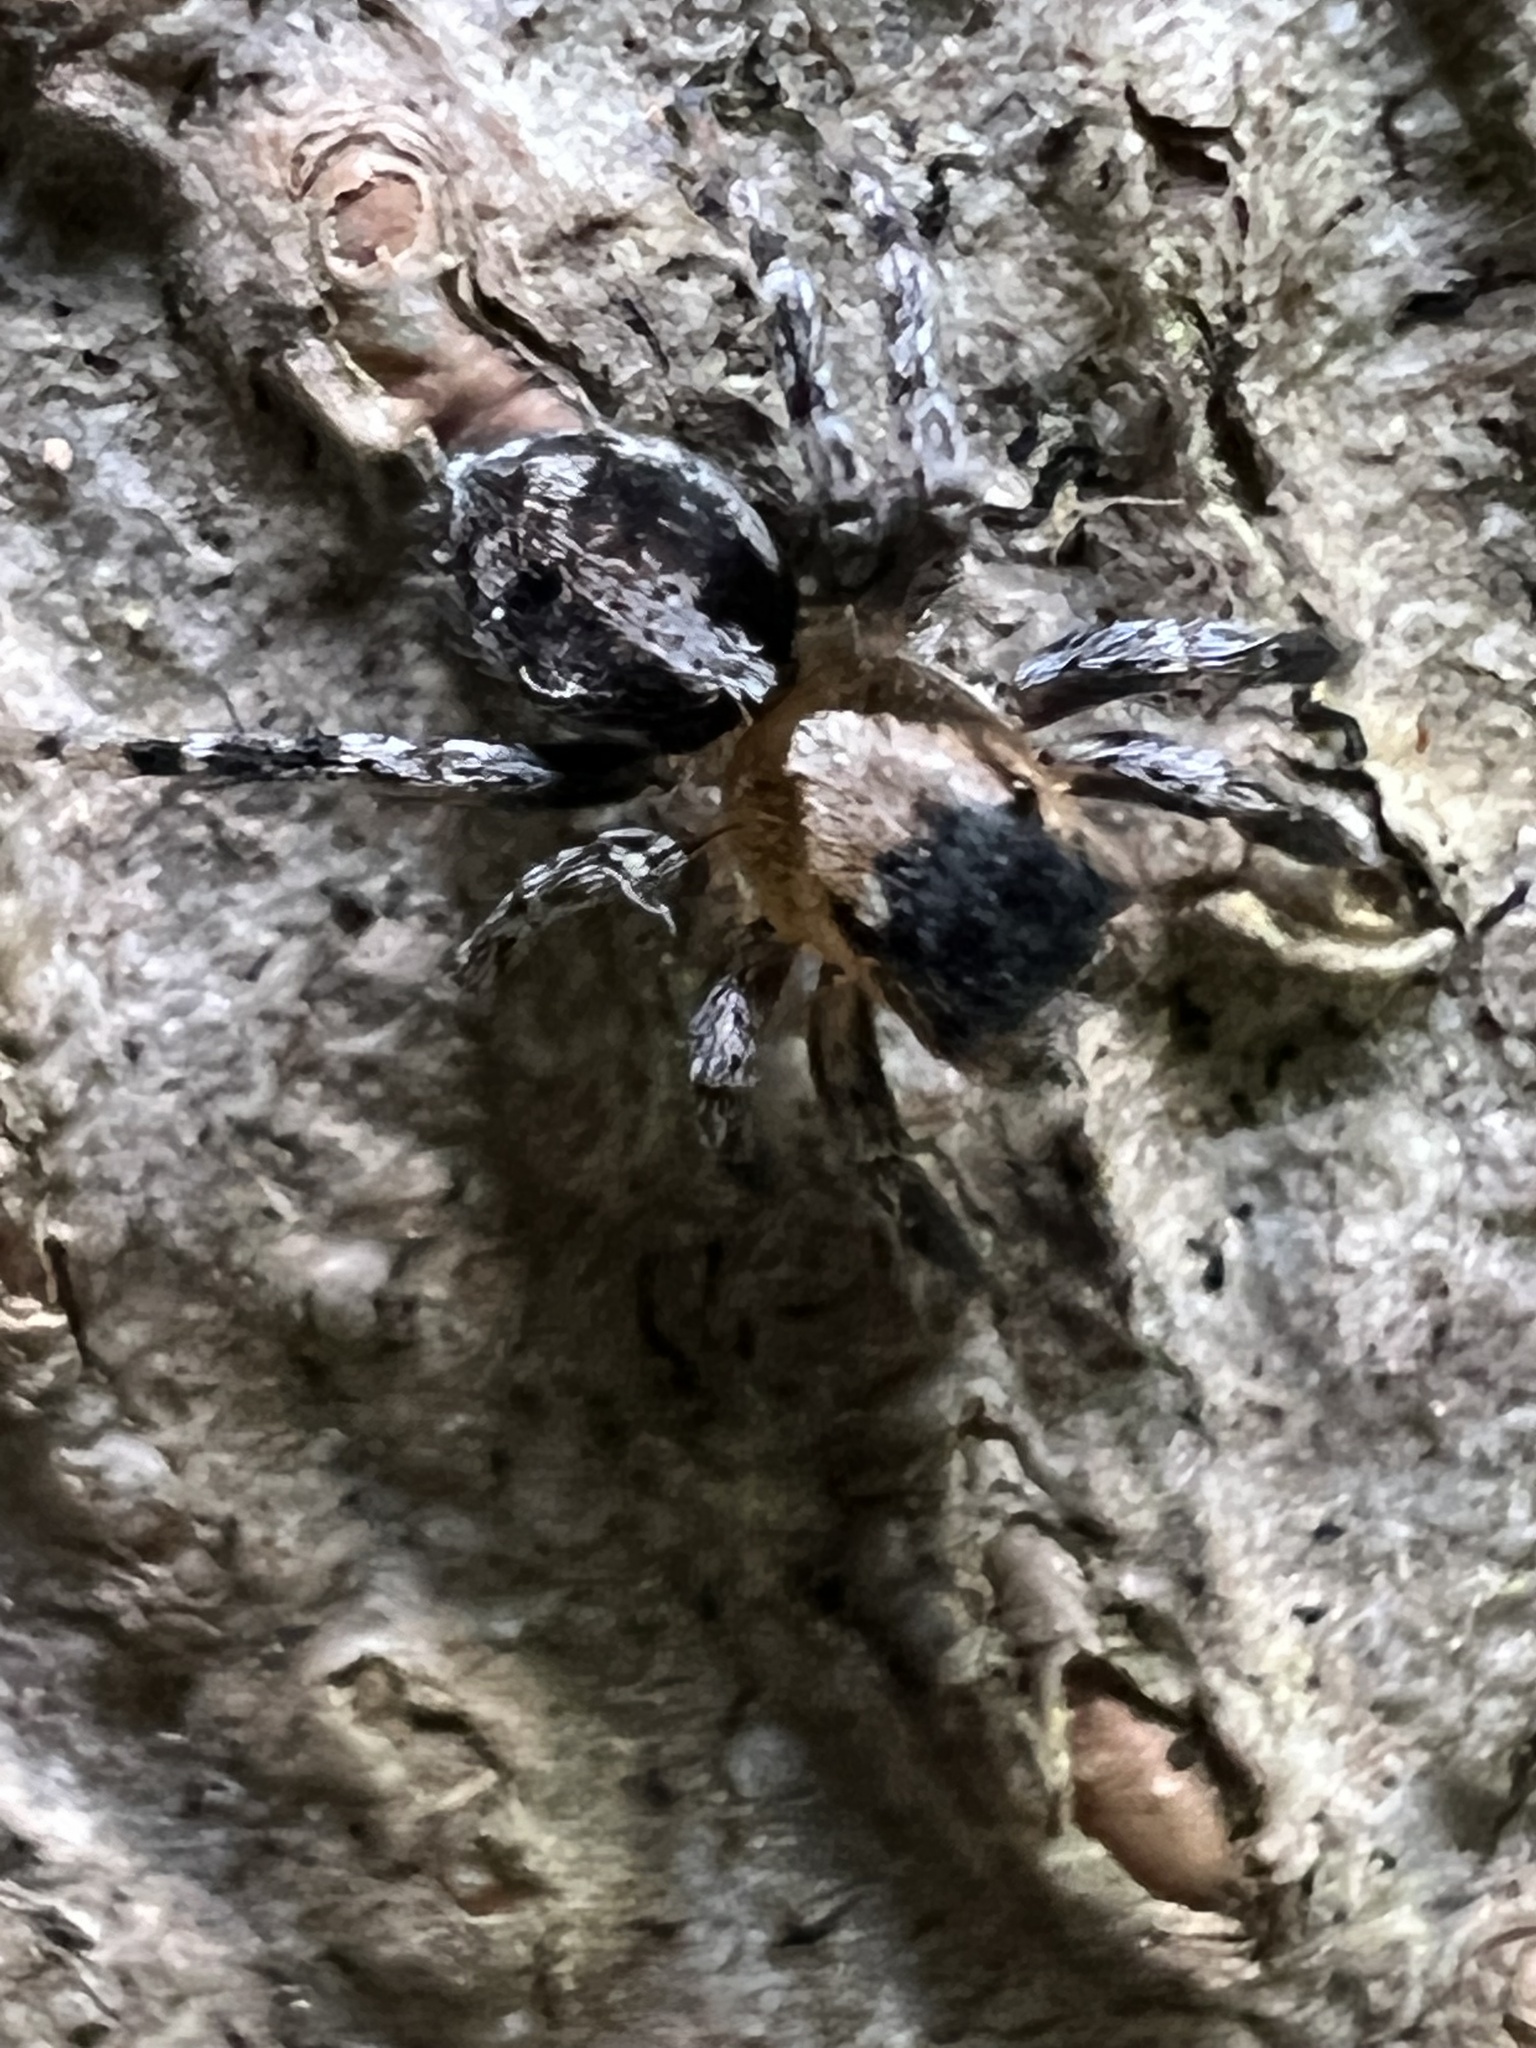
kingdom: Animalia
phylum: Arthropoda
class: Arachnida
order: Araneae
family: Salticidae
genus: Naphrys
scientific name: Naphrys pulex
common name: Flea jumping spider
